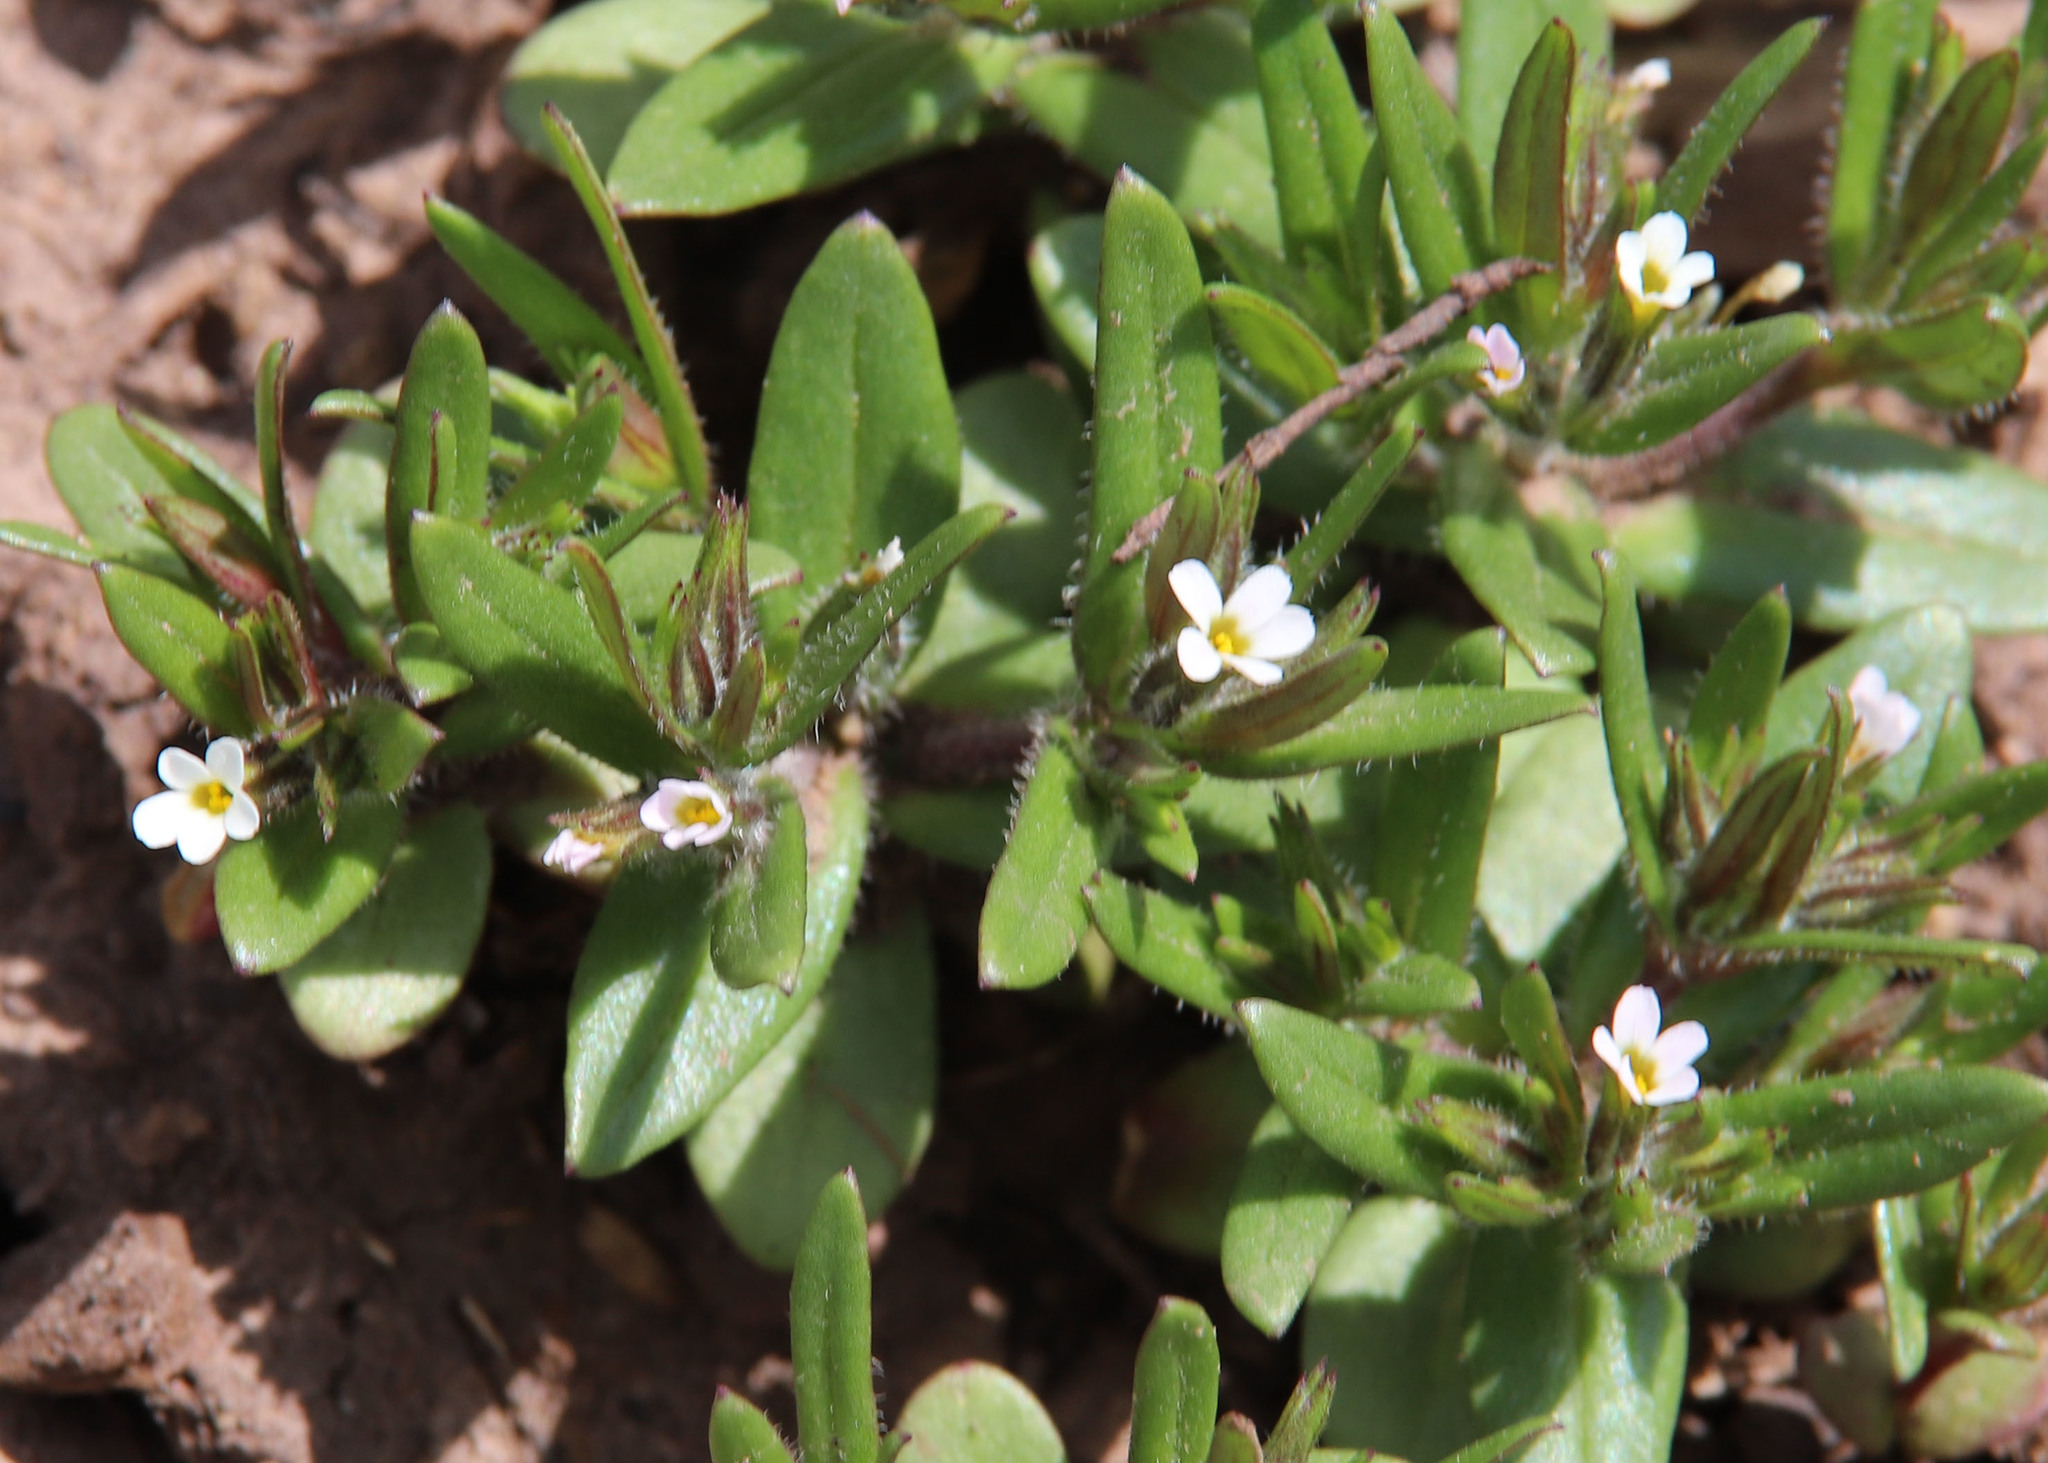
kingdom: Plantae
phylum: Tracheophyta
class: Magnoliopsida
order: Ericales
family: Polemoniaceae
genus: Phlox
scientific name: Phlox gracilis
